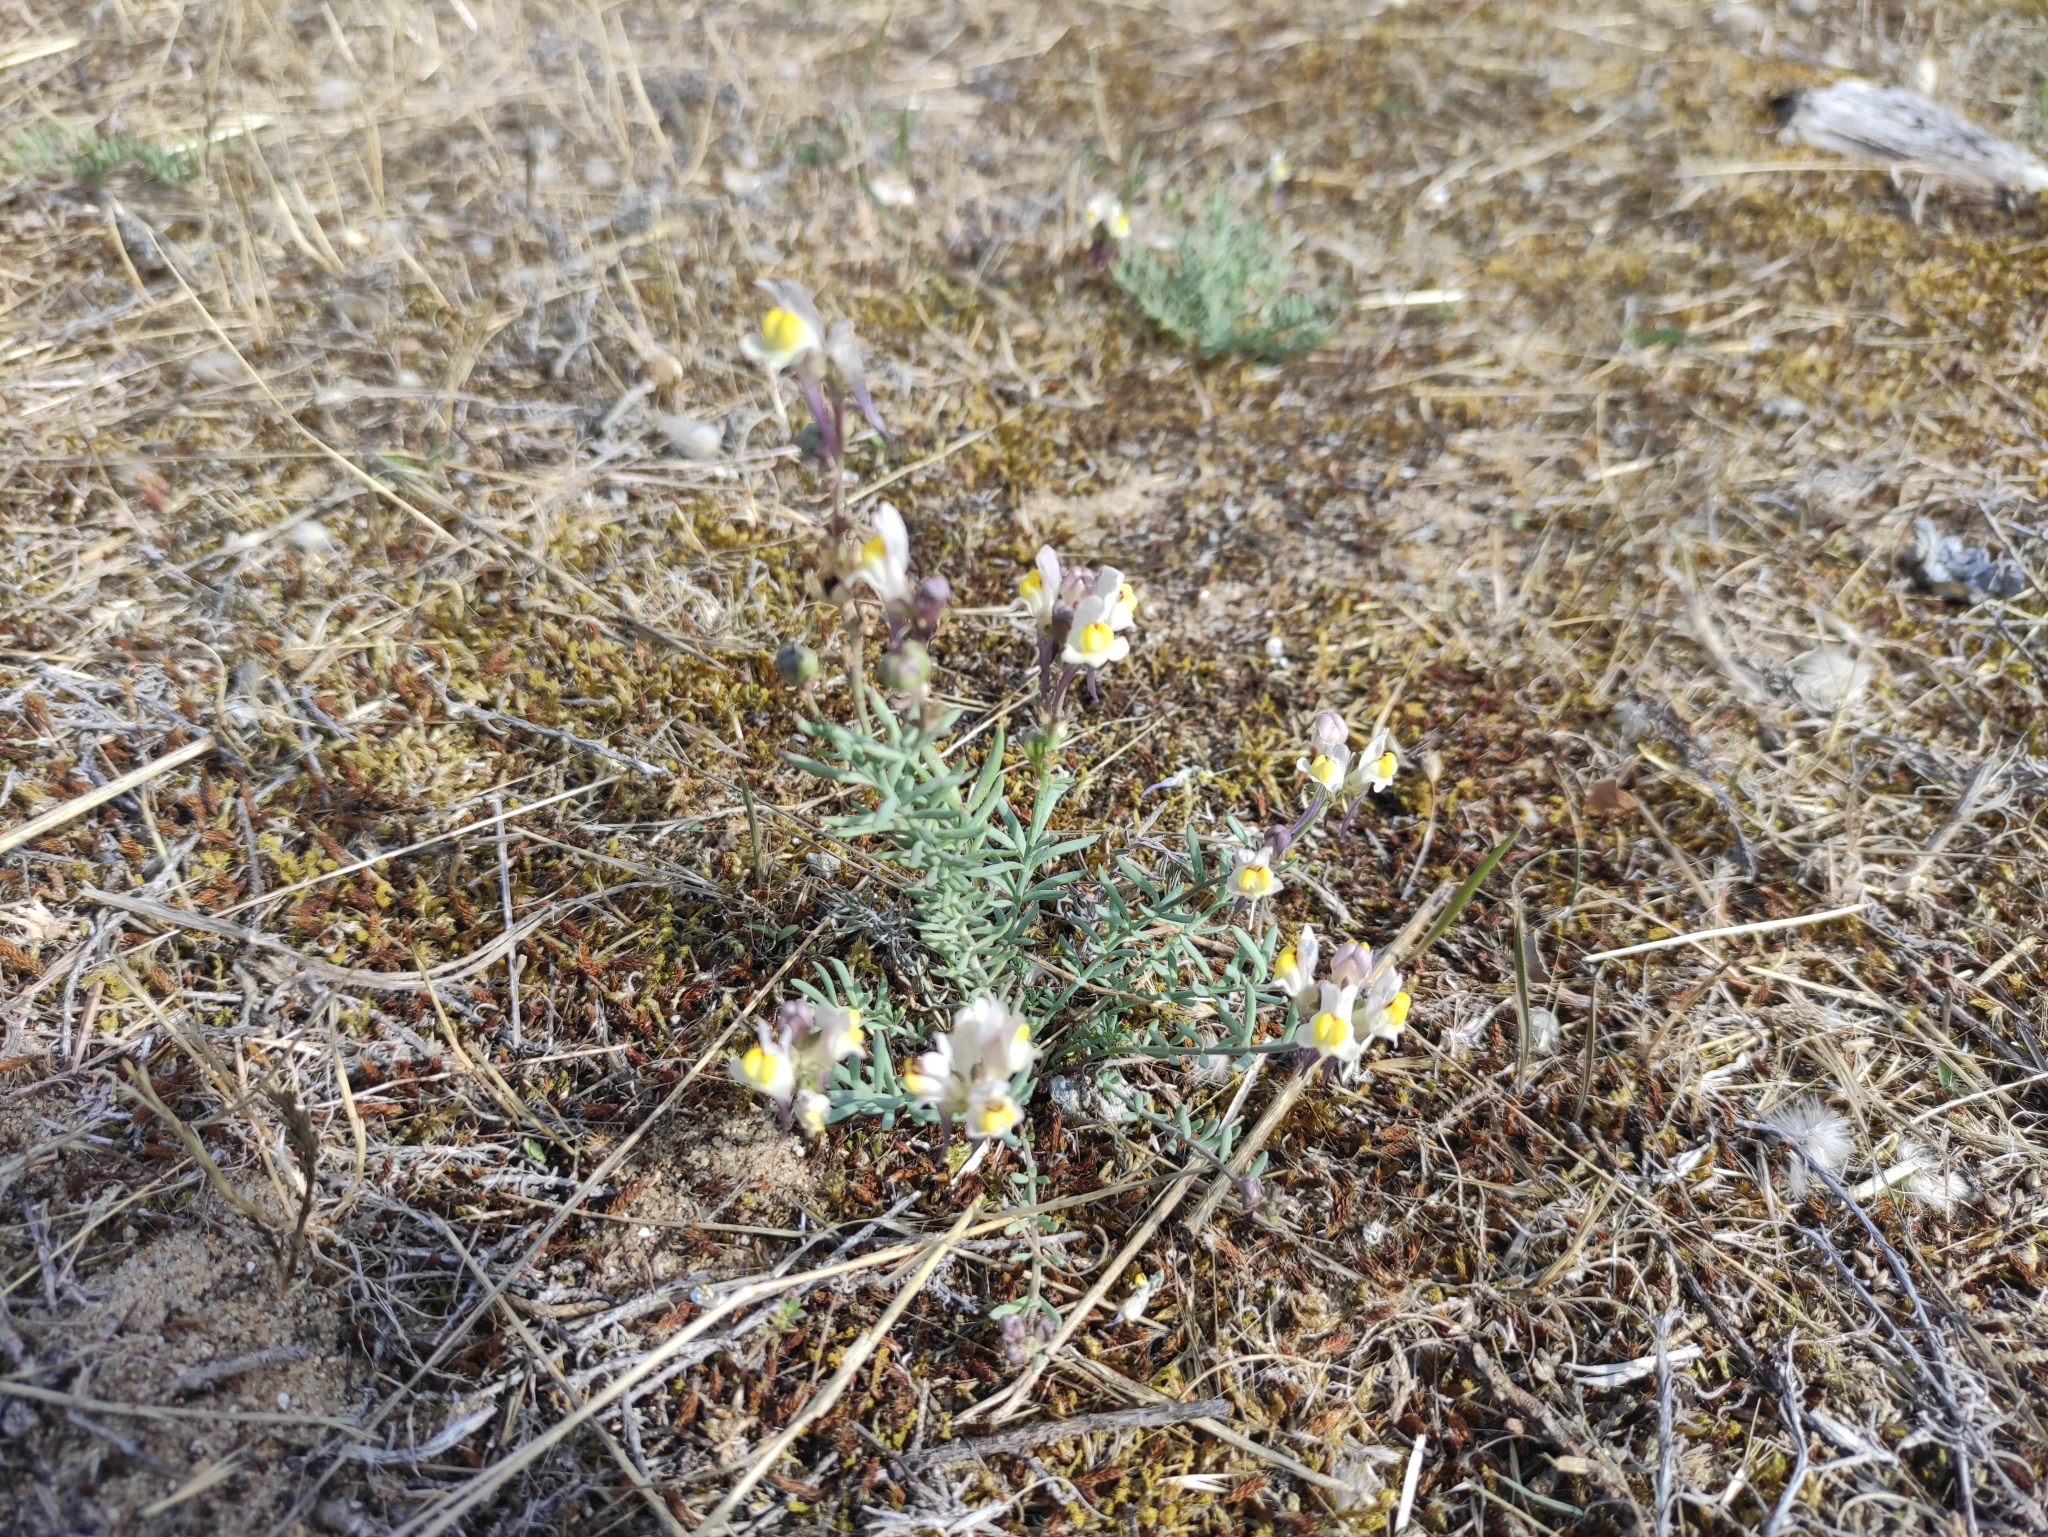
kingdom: Plantae
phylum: Tracheophyta
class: Magnoliopsida
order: Lamiales
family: Plantaginaceae
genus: Linaria
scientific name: Linaria supina
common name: Prostrate toadflax
